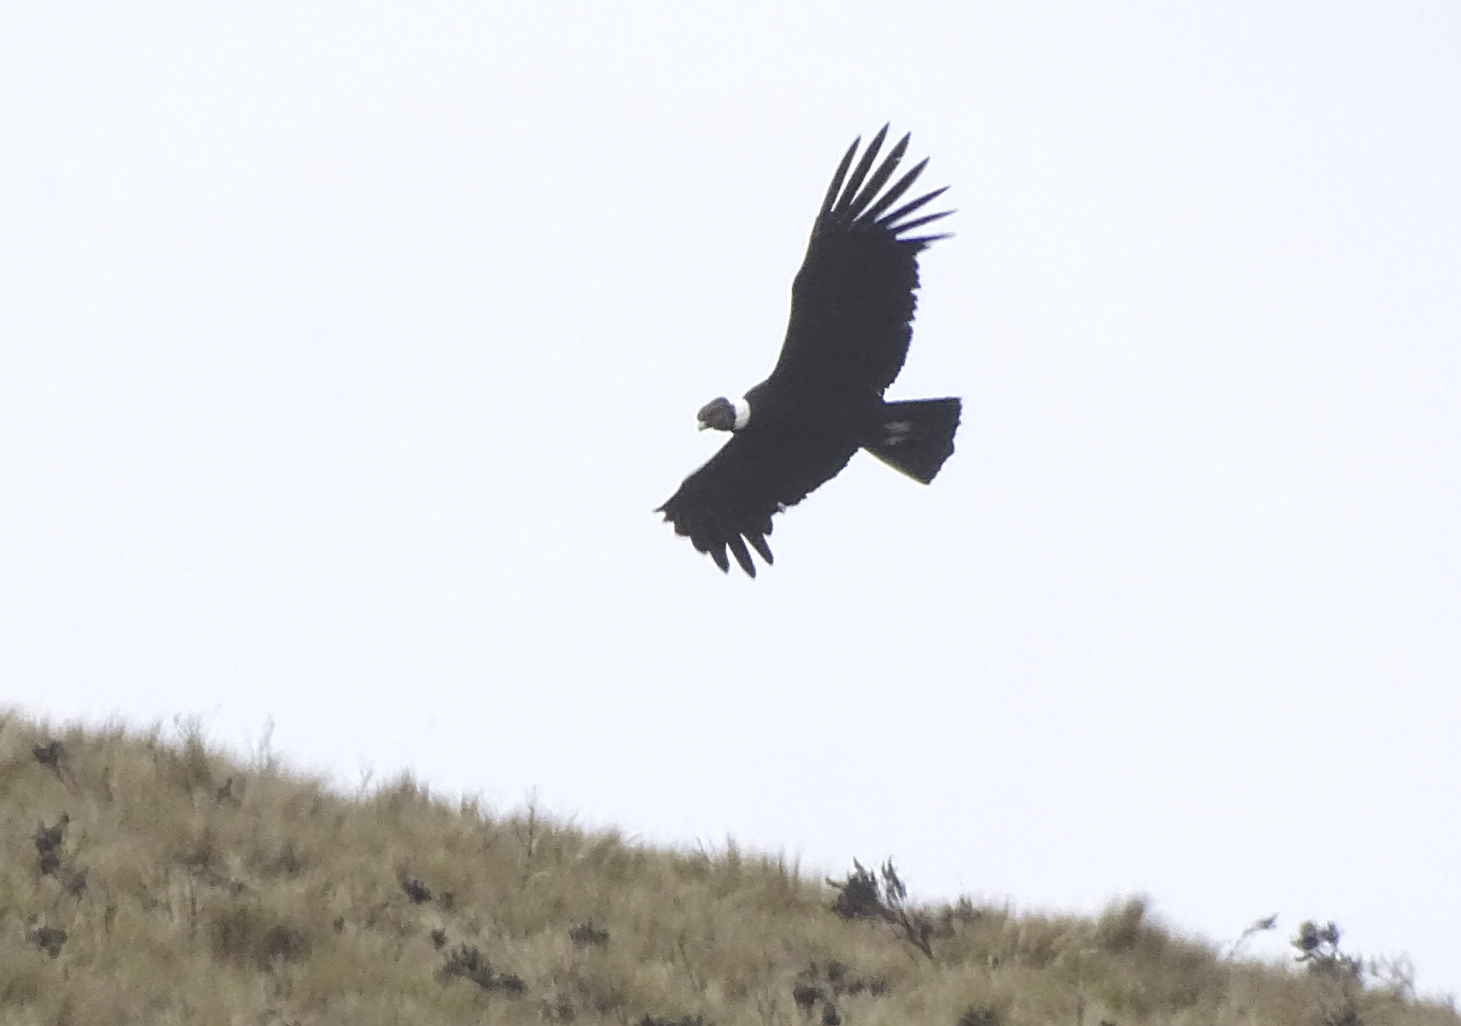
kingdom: Animalia
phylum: Chordata
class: Aves
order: Accipitriformes
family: Cathartidae
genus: Vultur
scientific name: Vultur gryphus
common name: Andean condor
